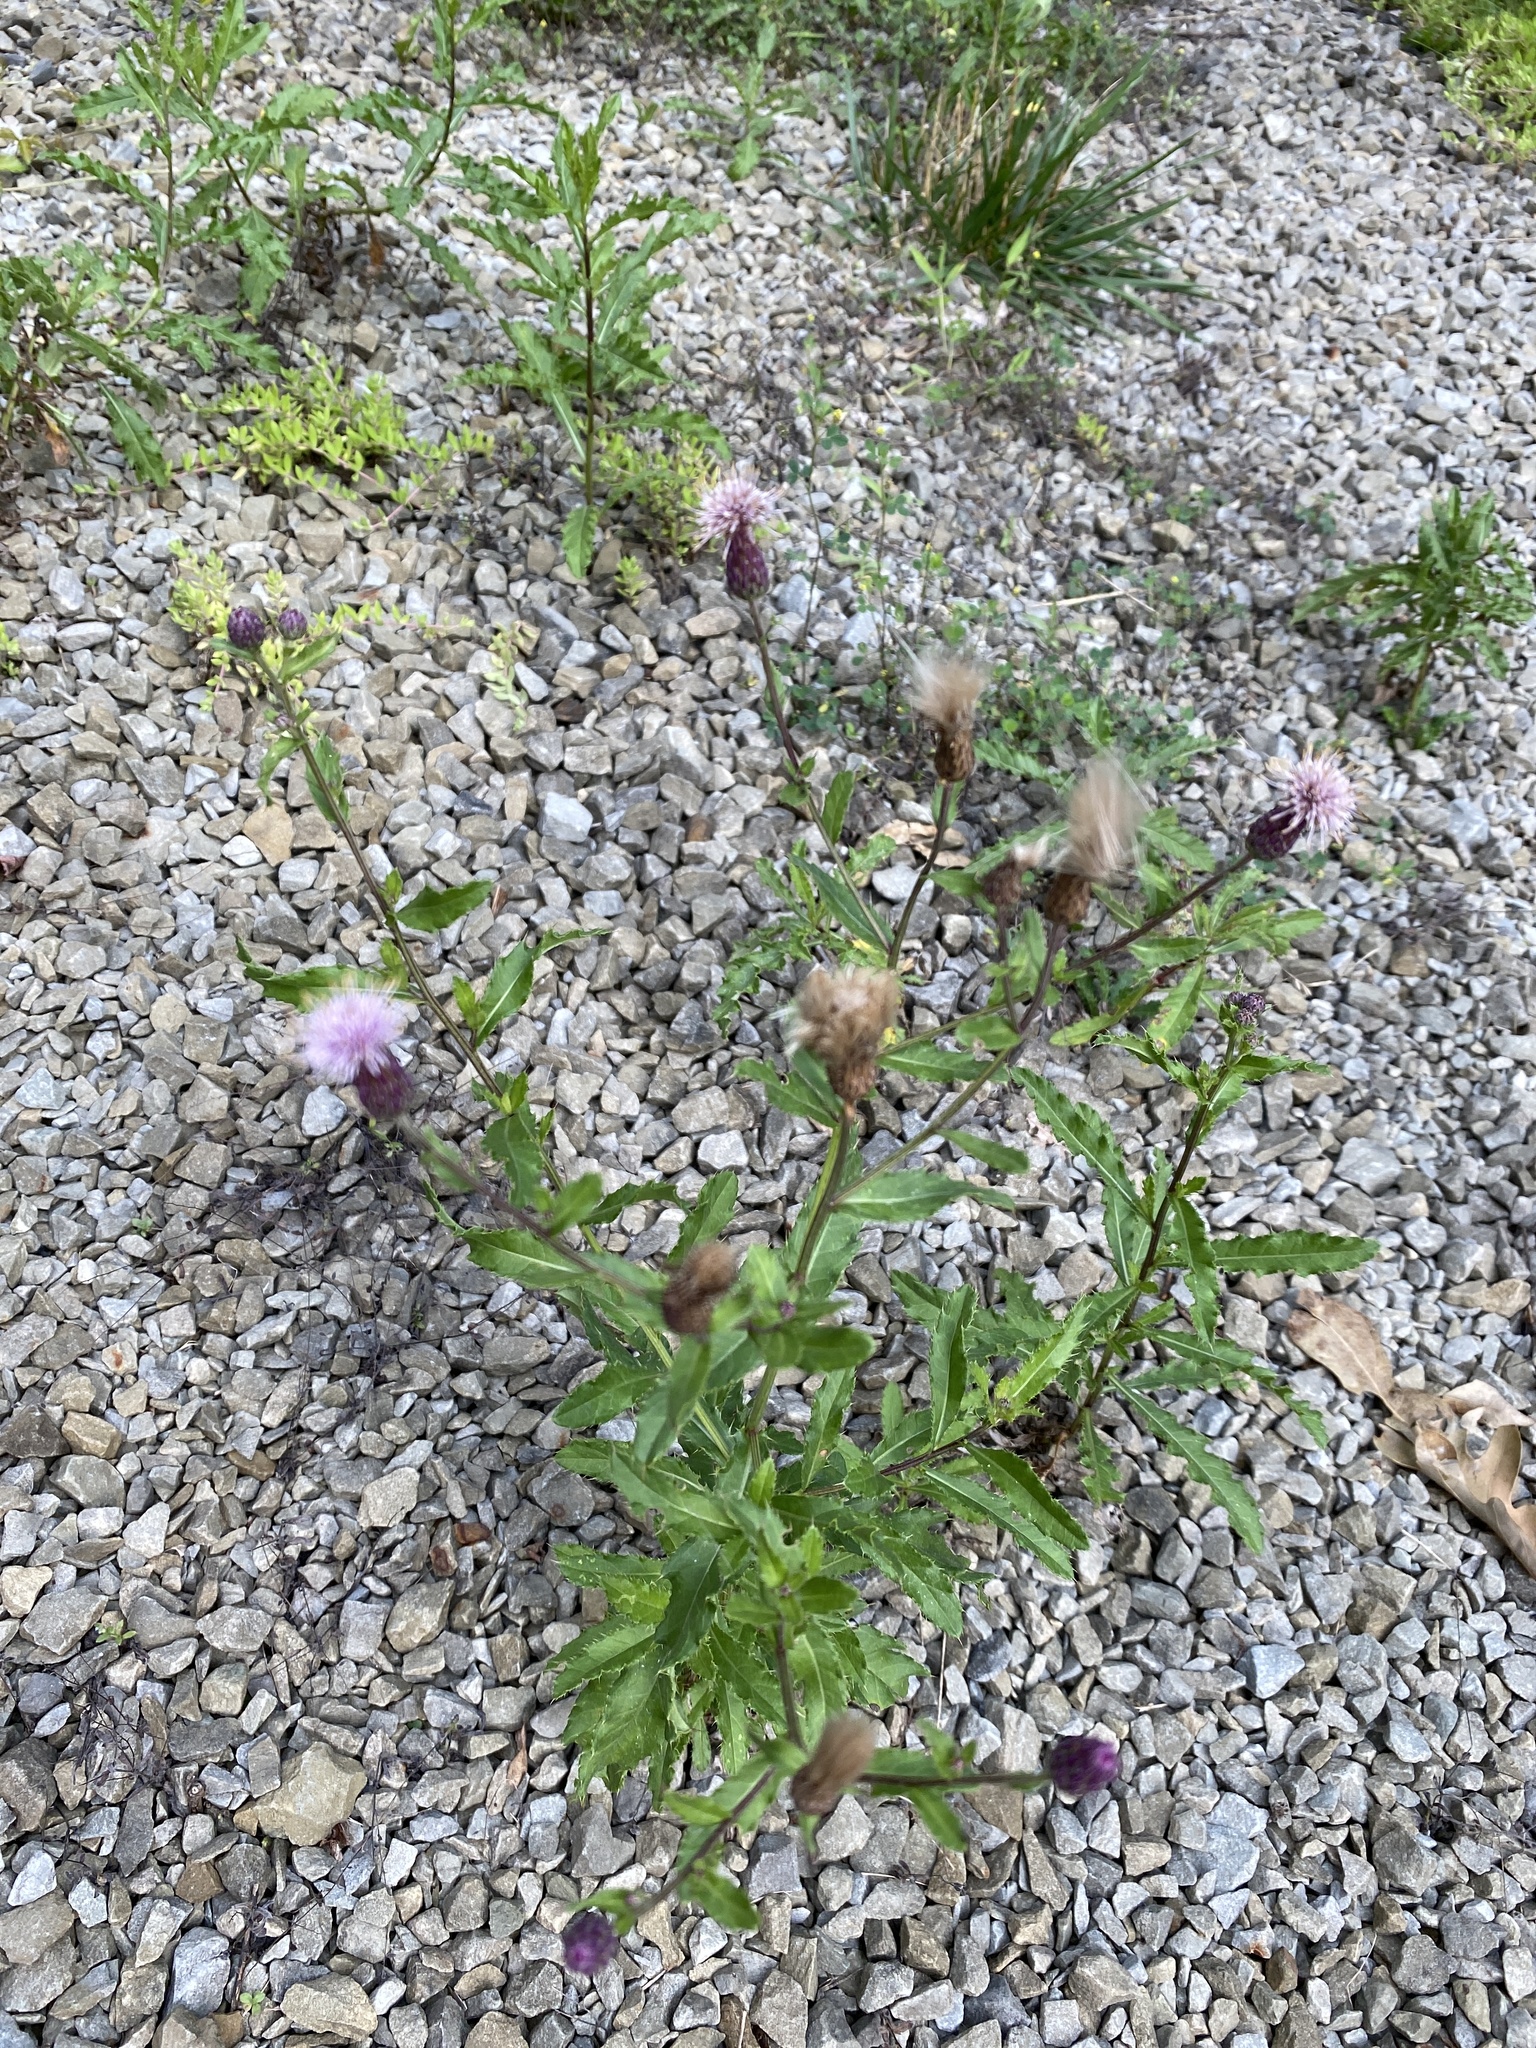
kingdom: Plantae
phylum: Tracheophyta
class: Magnoliopsida
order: Asterales
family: Asteraceae
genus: Cirsium
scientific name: Cirsium arvense
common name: Creeping thistle
